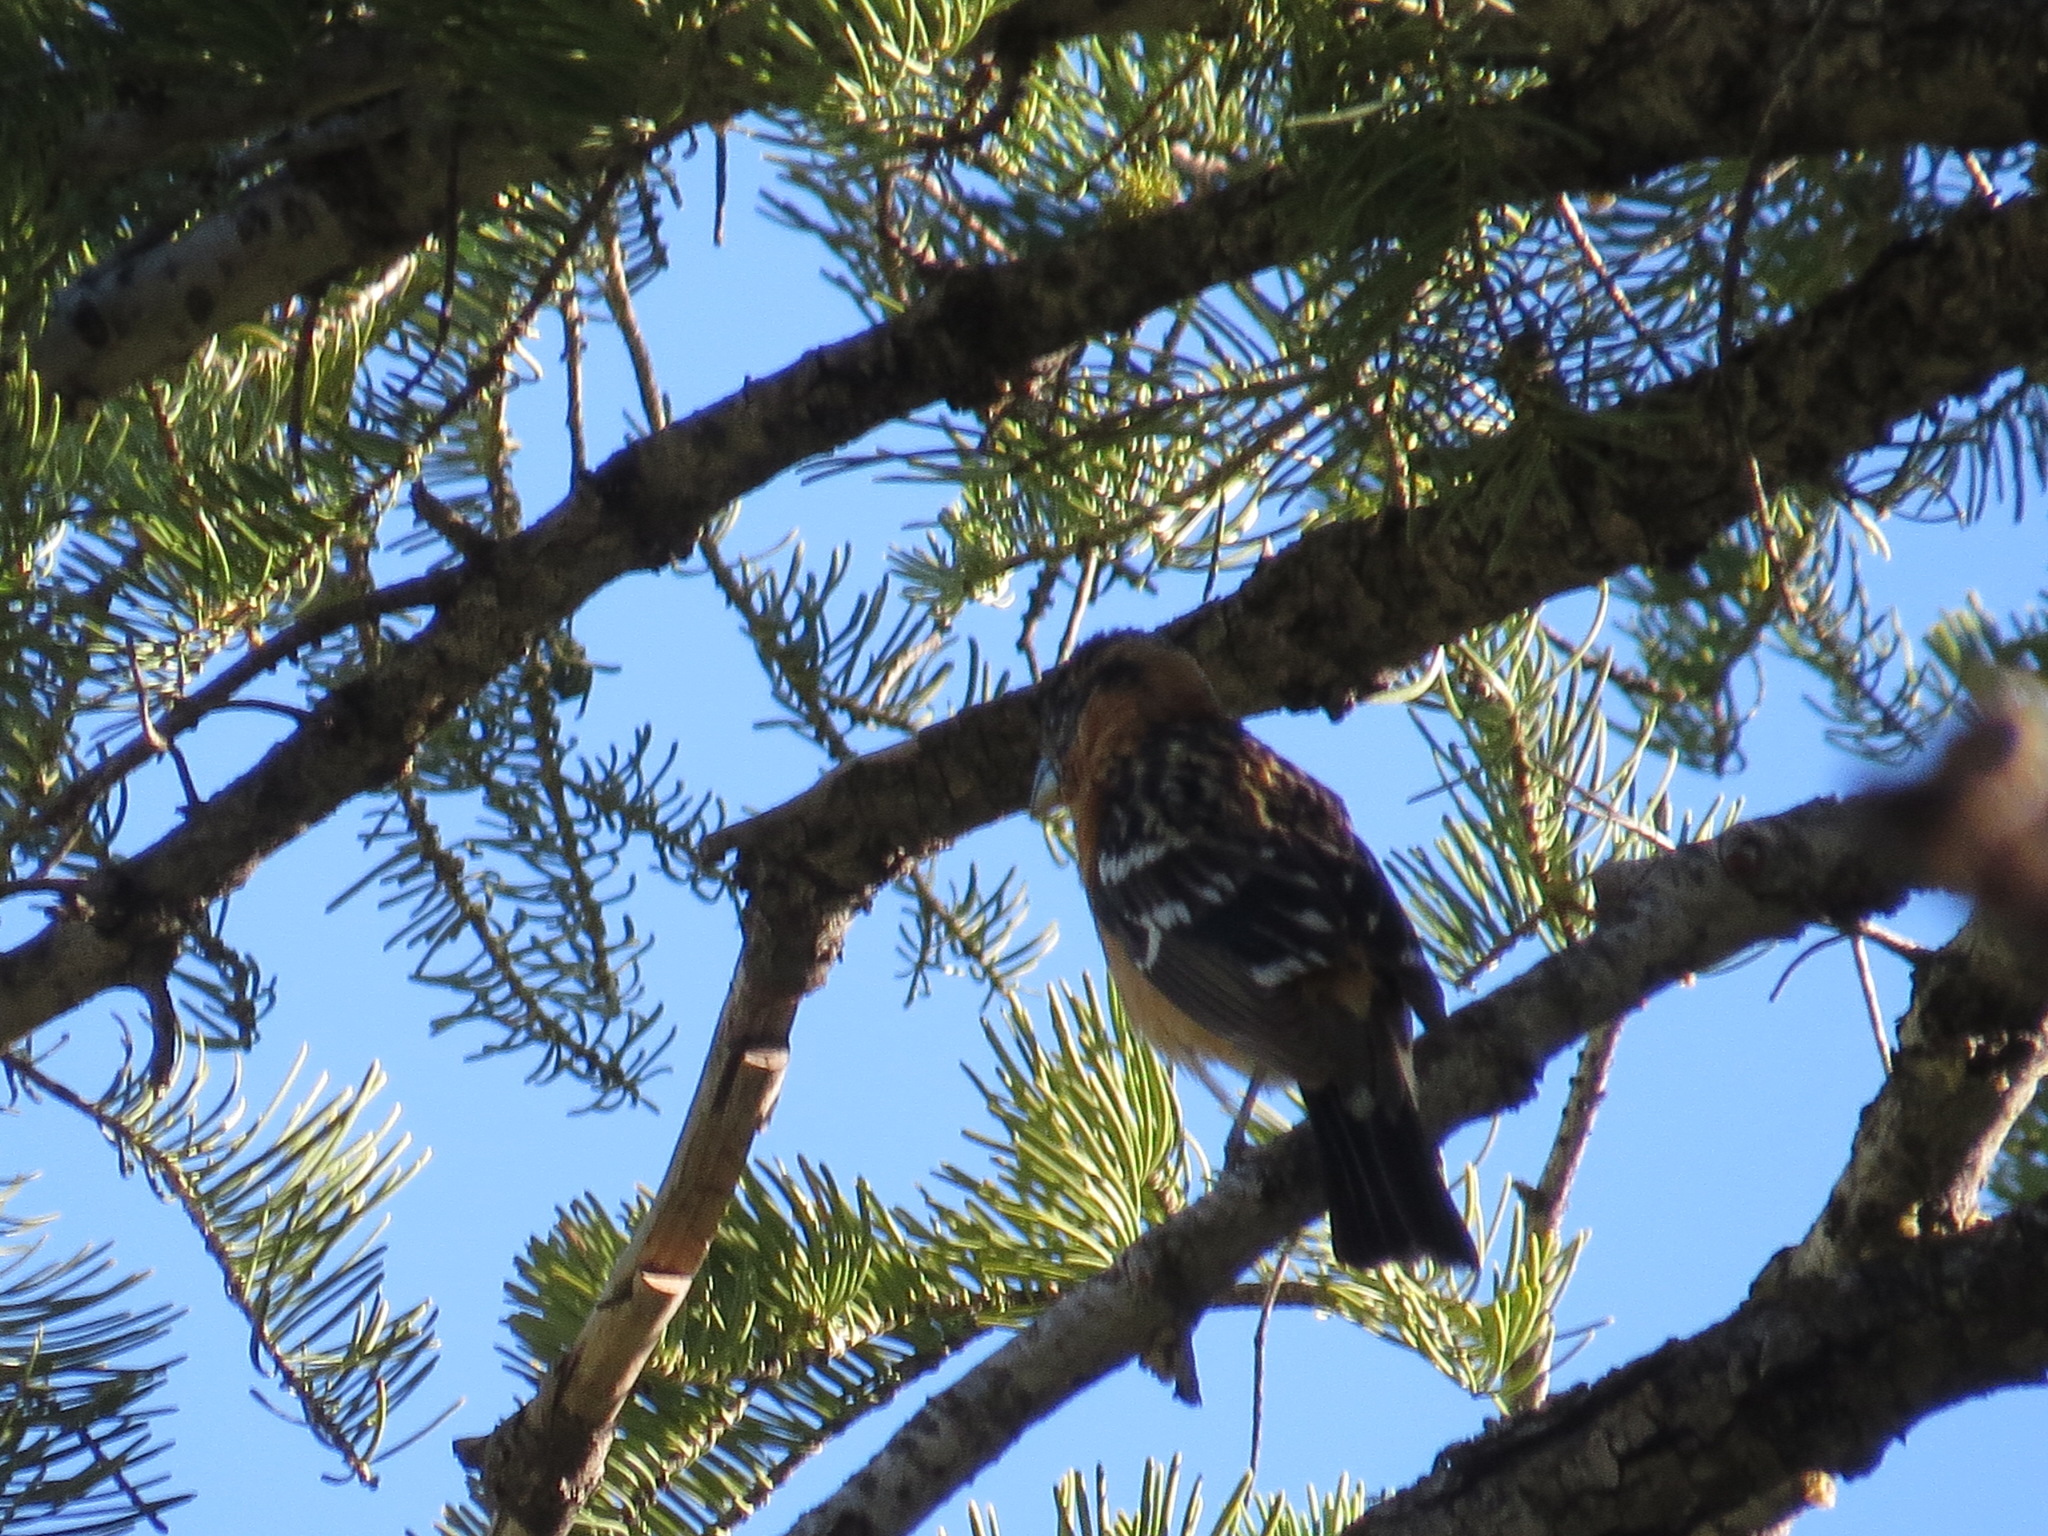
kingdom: Animalia
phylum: Chordata
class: Aves
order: Passeriformes
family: Cardinalidae
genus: Pheucticus
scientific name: Pheucticus melanocephalus
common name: Black-headed grosbeak
